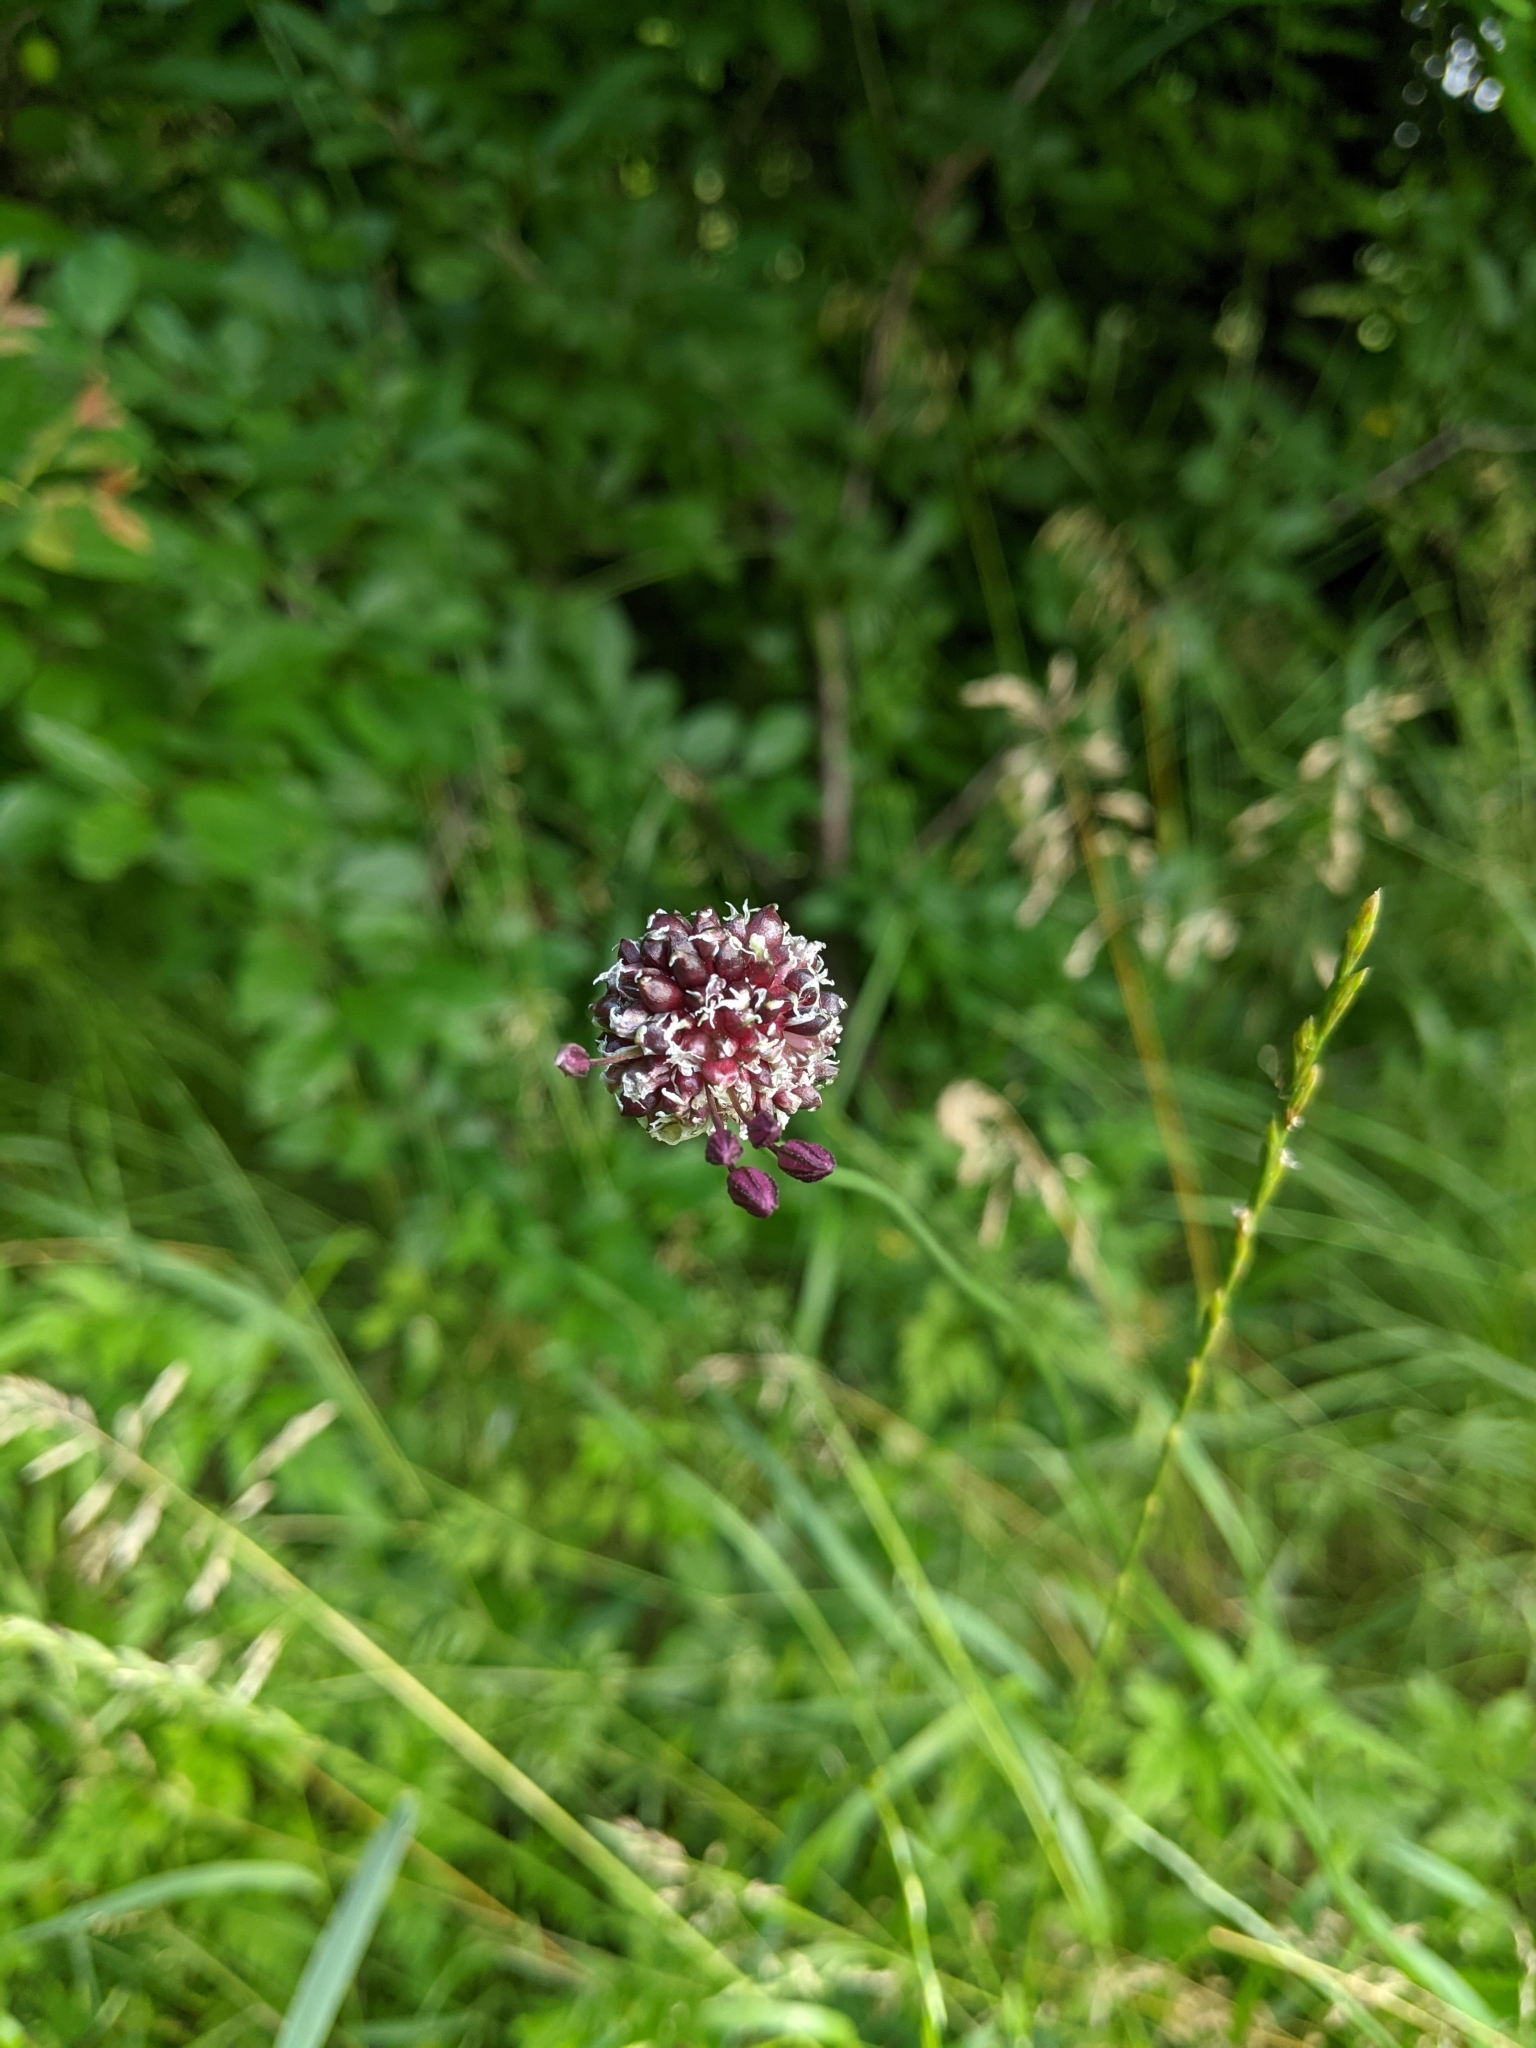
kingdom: Plantae
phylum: Tracheophyta
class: Liliopsida
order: Asparagales
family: Amaryllidaceae
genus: Allium
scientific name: Allium scorodoprasum
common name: Sand leek
